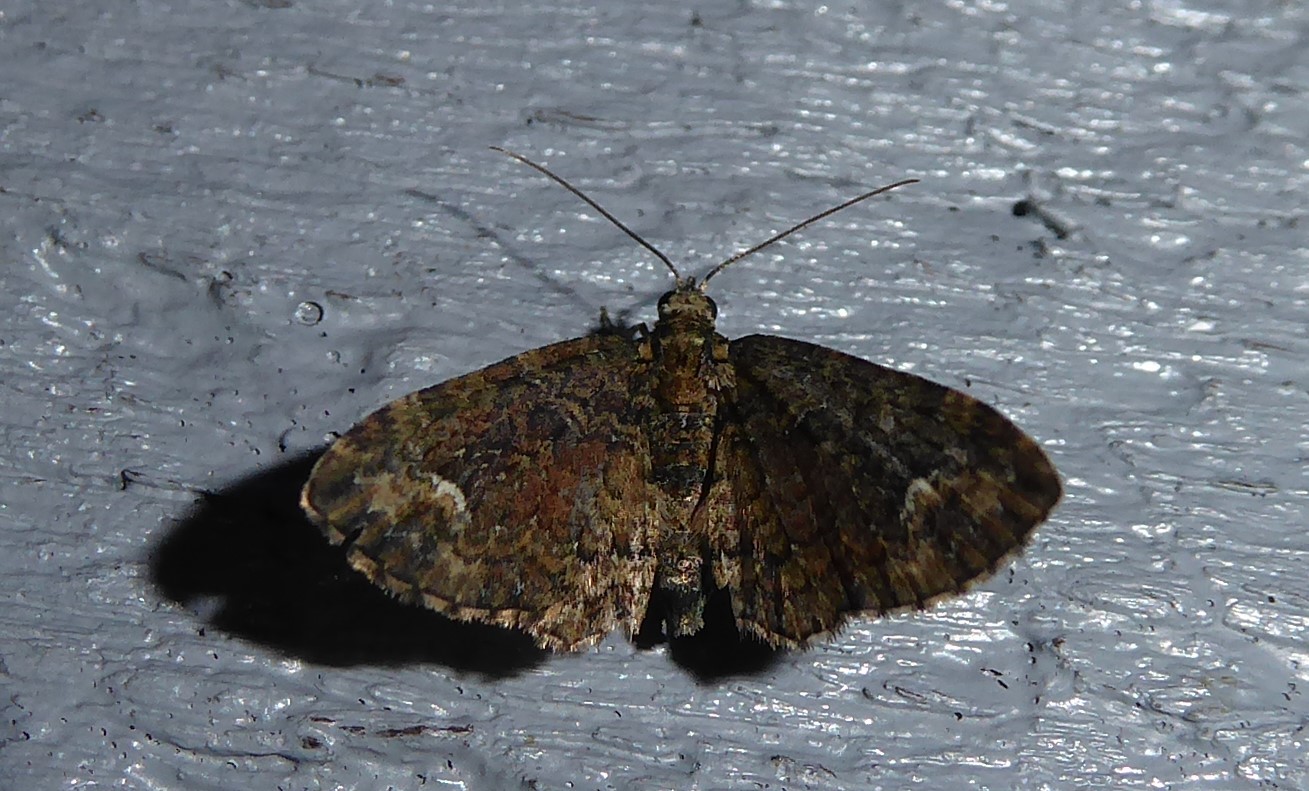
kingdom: Animalia
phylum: Arthropoda
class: Insecta
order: Lepidoptera
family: Geometridae
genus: Pasiphilodes
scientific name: Pasiphilodes testulata
